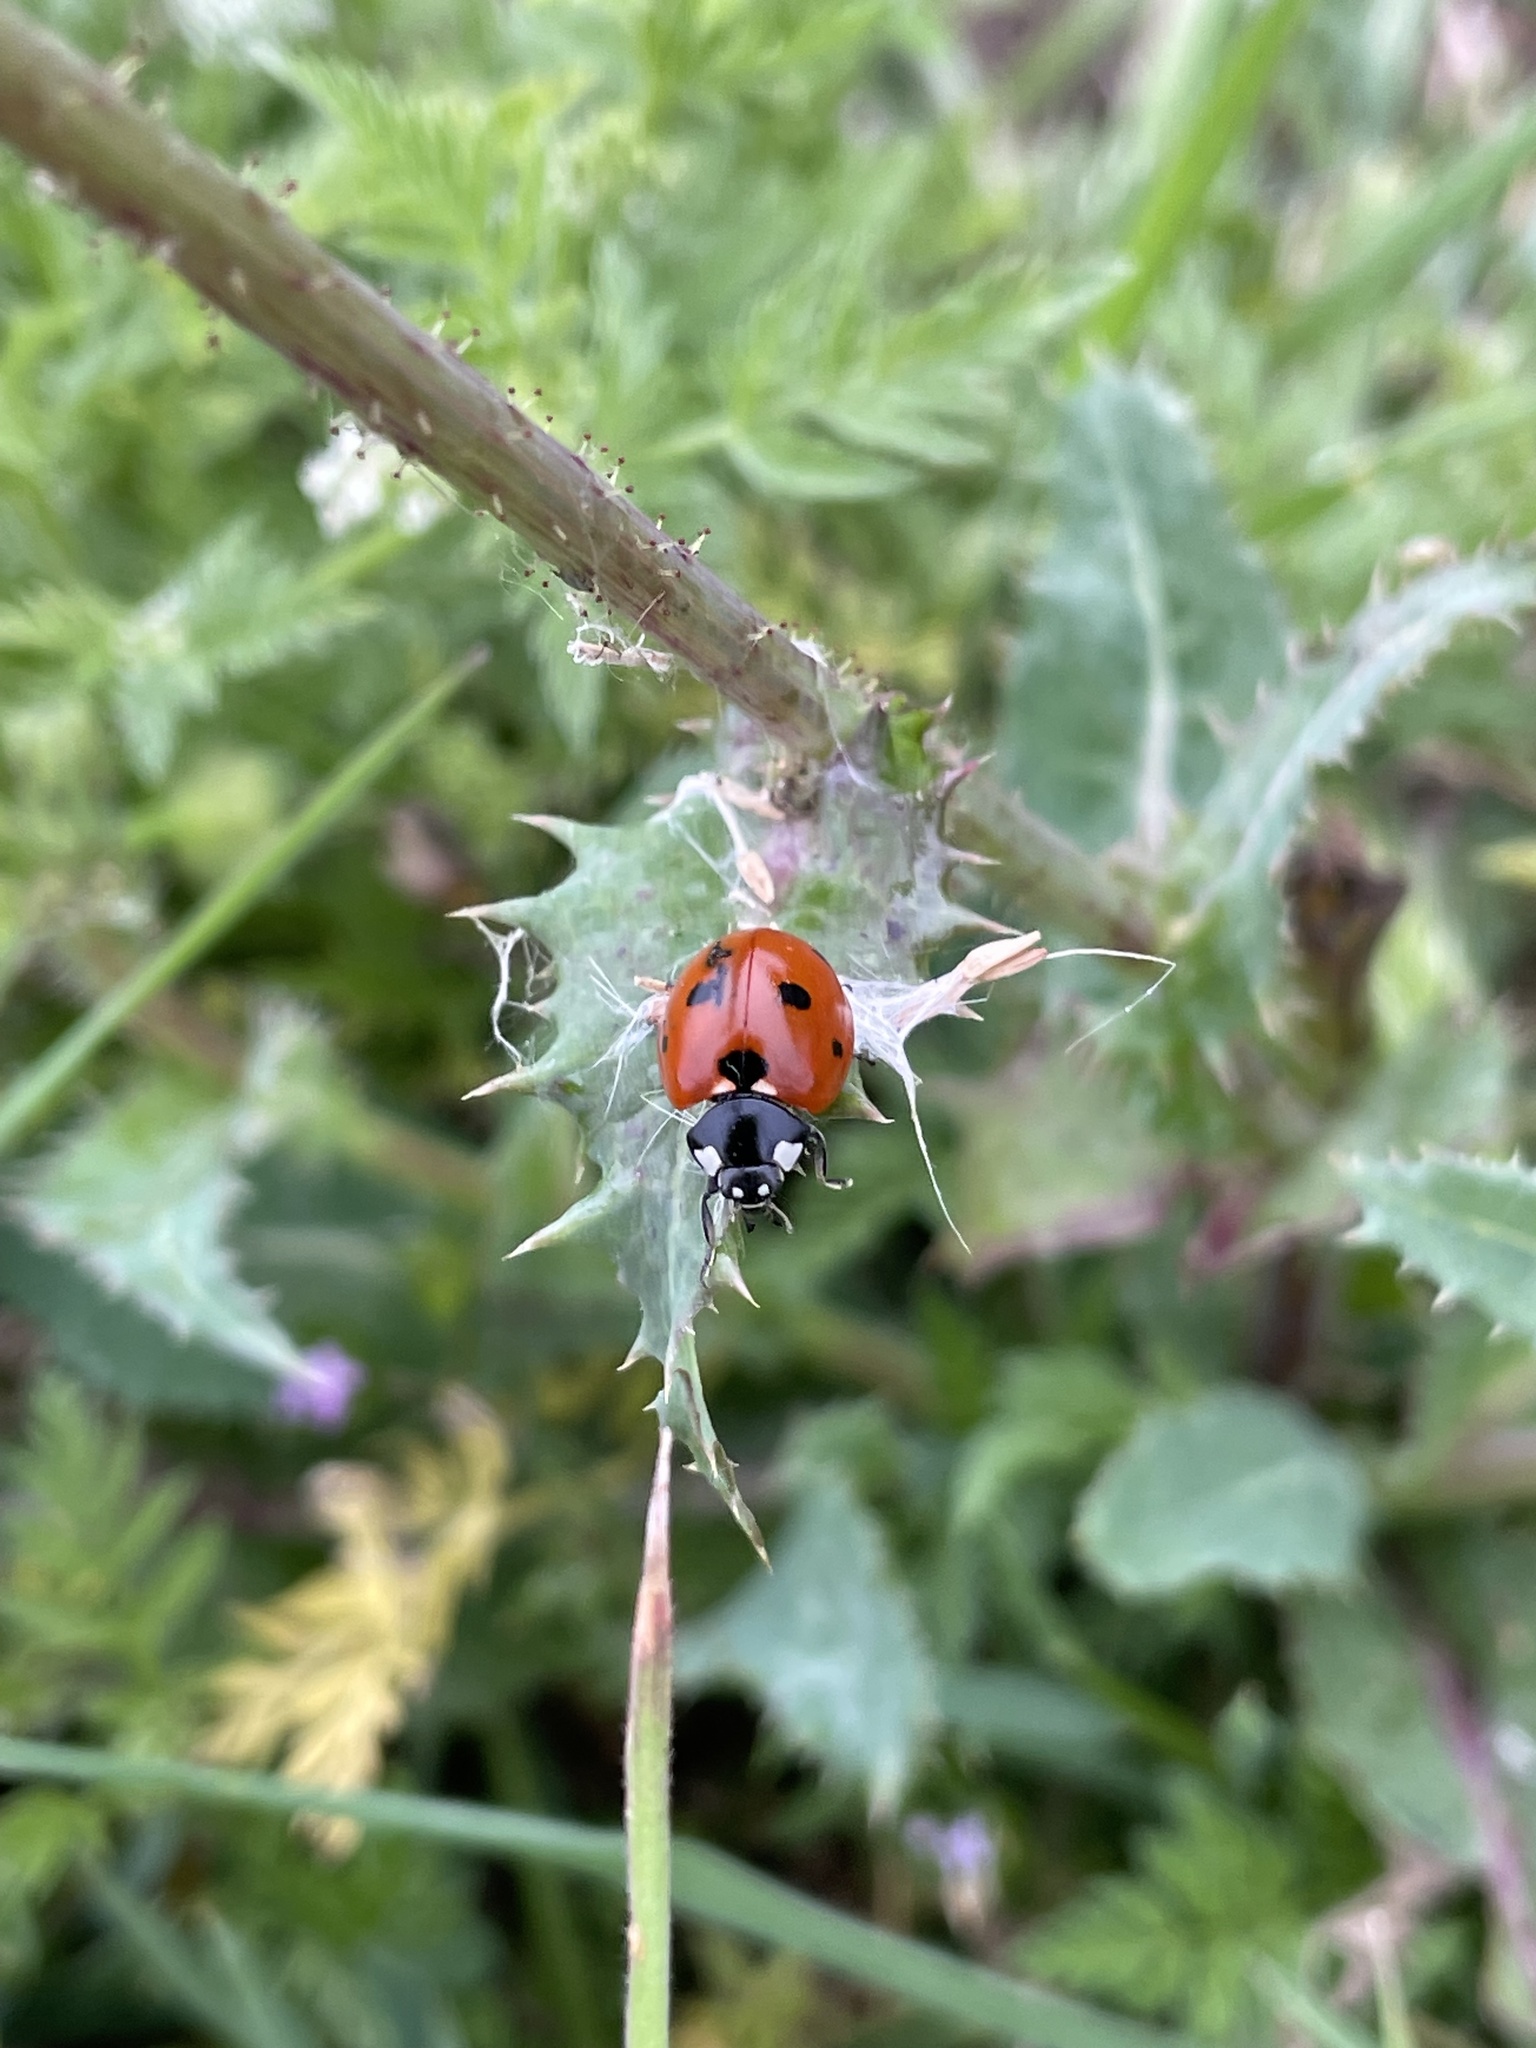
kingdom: Animalia
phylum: Arthropoda
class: Insecta
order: Coleoptera
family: Coccinellidae
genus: Coccinella
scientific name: Coccinella septempunctata
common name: Sevenspotted lady beetle
